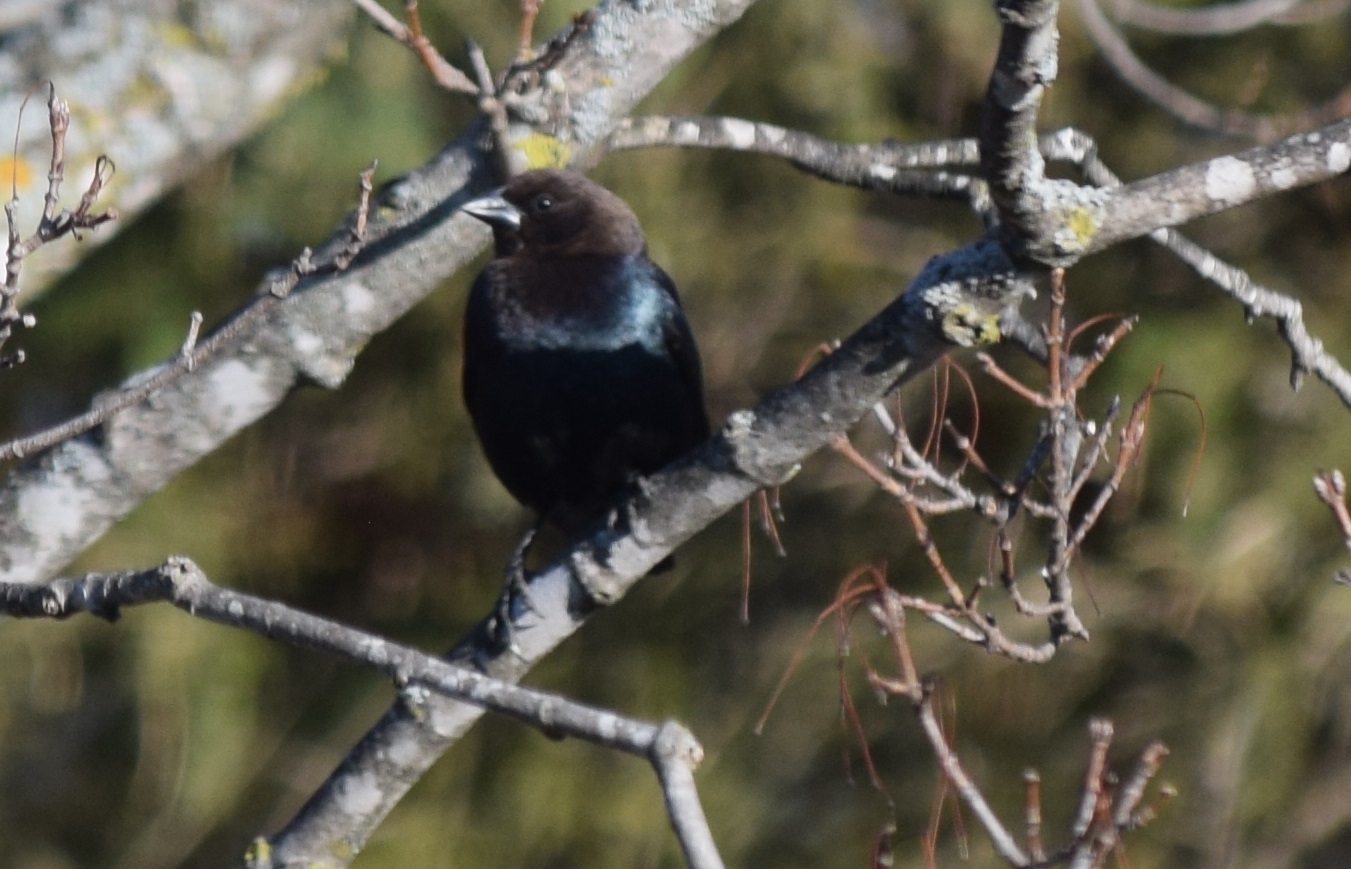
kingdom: Animalia
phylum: Chordata
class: Aves
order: Passeriformes
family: Icteridae
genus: Molothrus
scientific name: Molothrus ater
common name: Brown-headed cowbird
